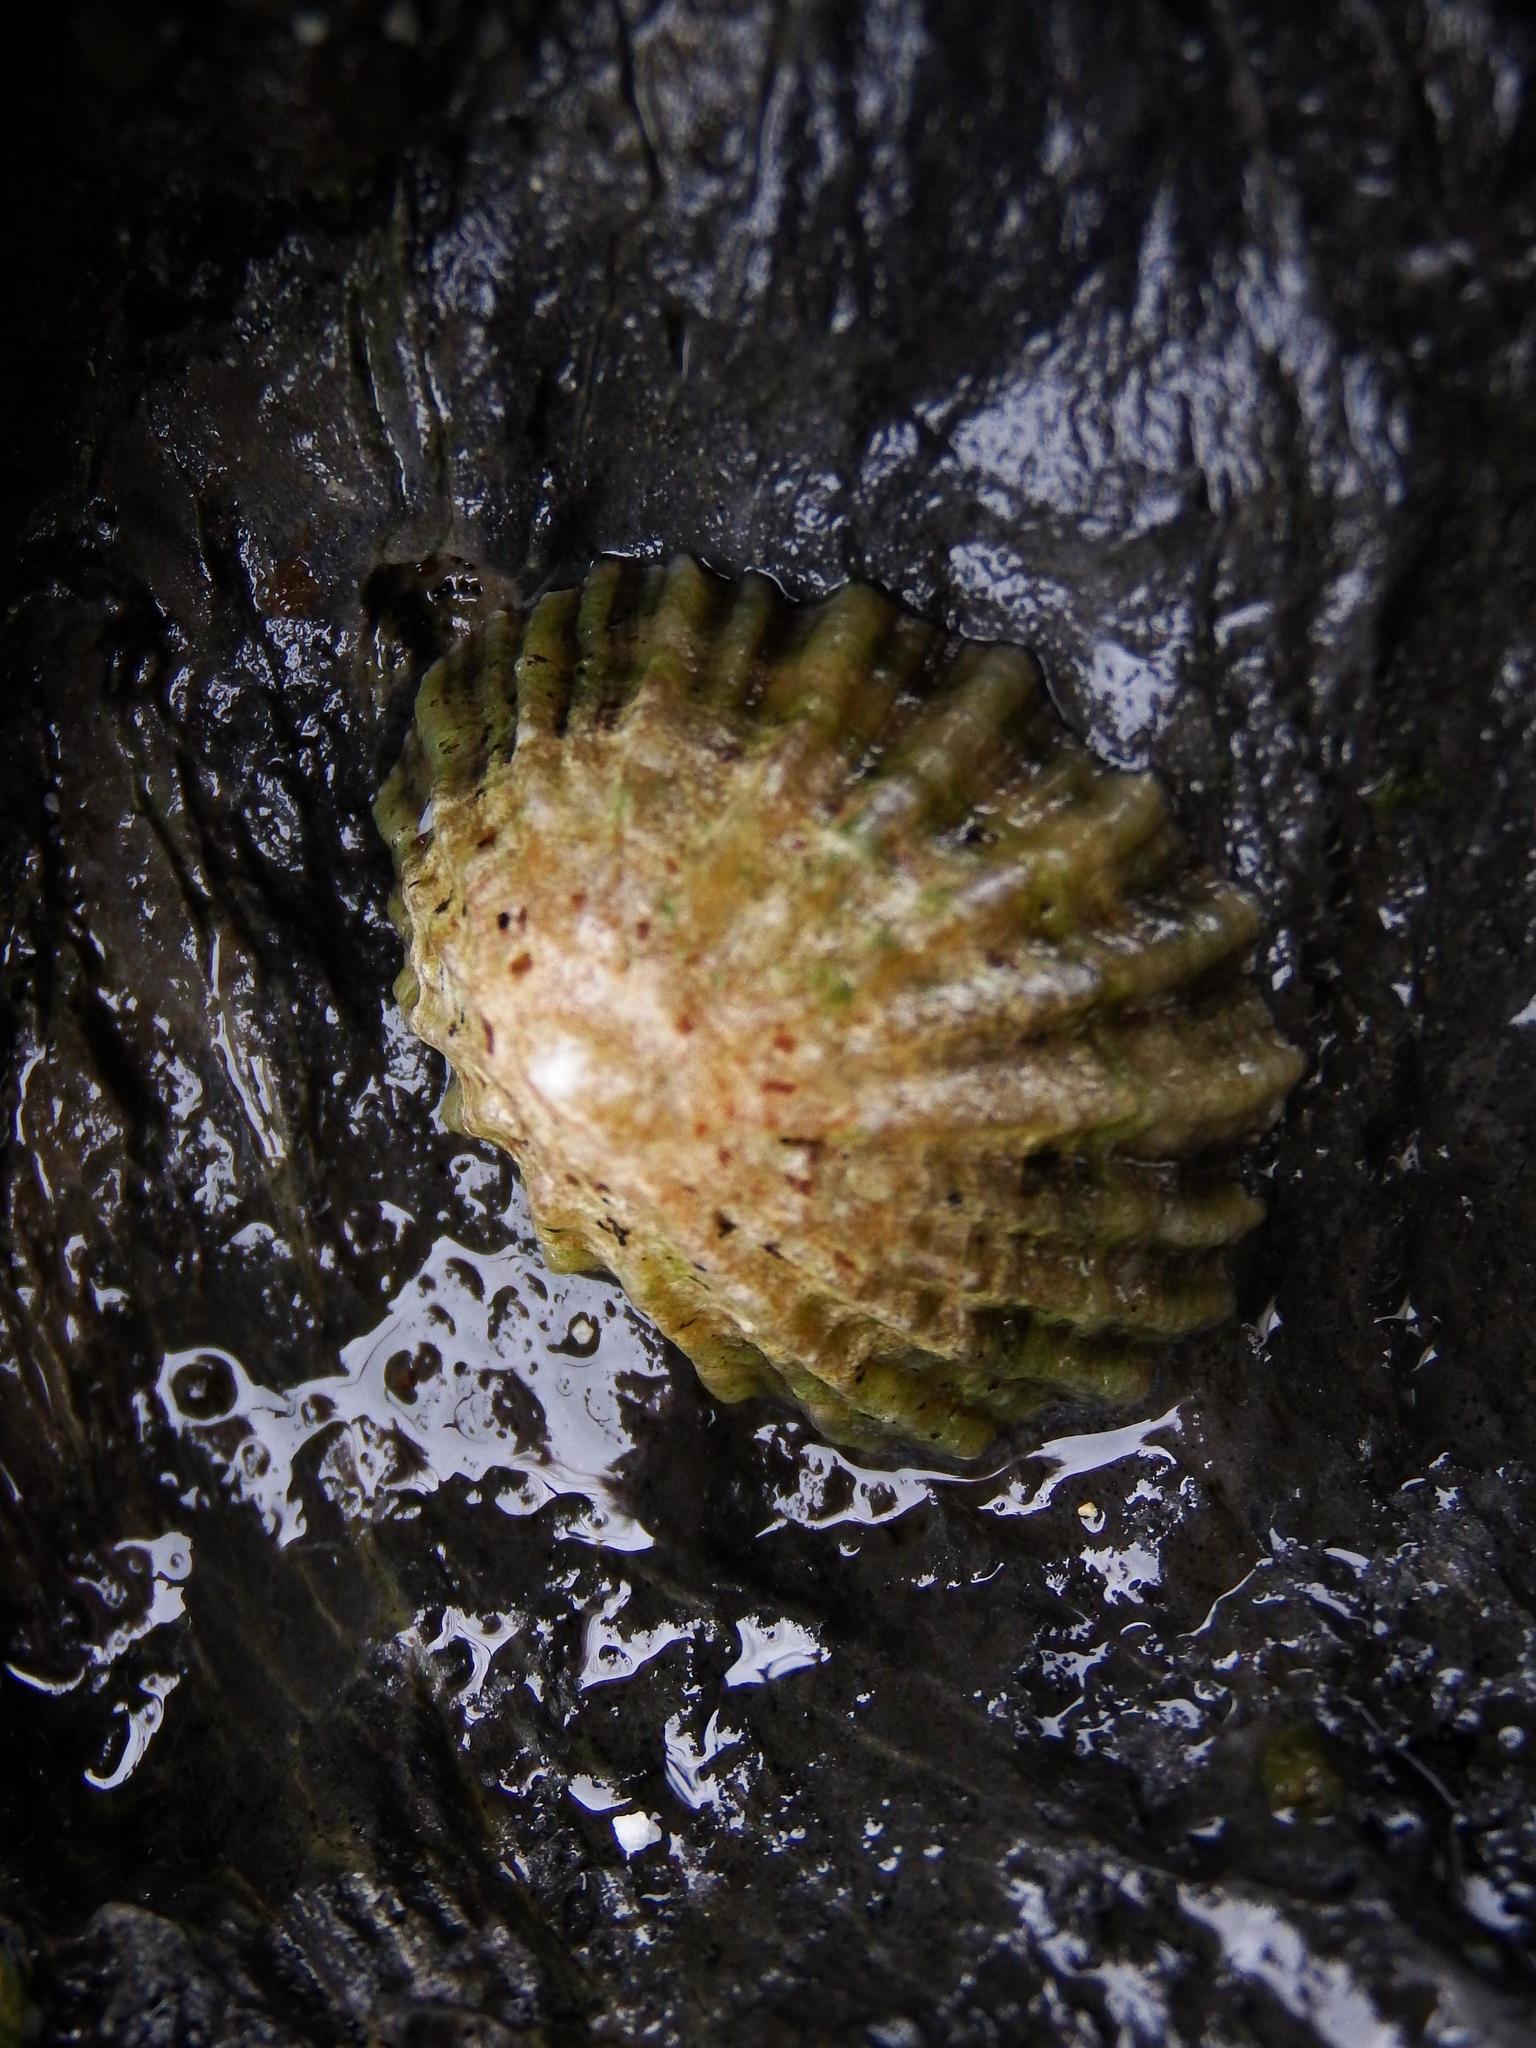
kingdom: Animalia
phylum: Mollusca
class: Gastropoda
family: Patellidae
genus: Patella
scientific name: Patella vulgata
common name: Common limpet
